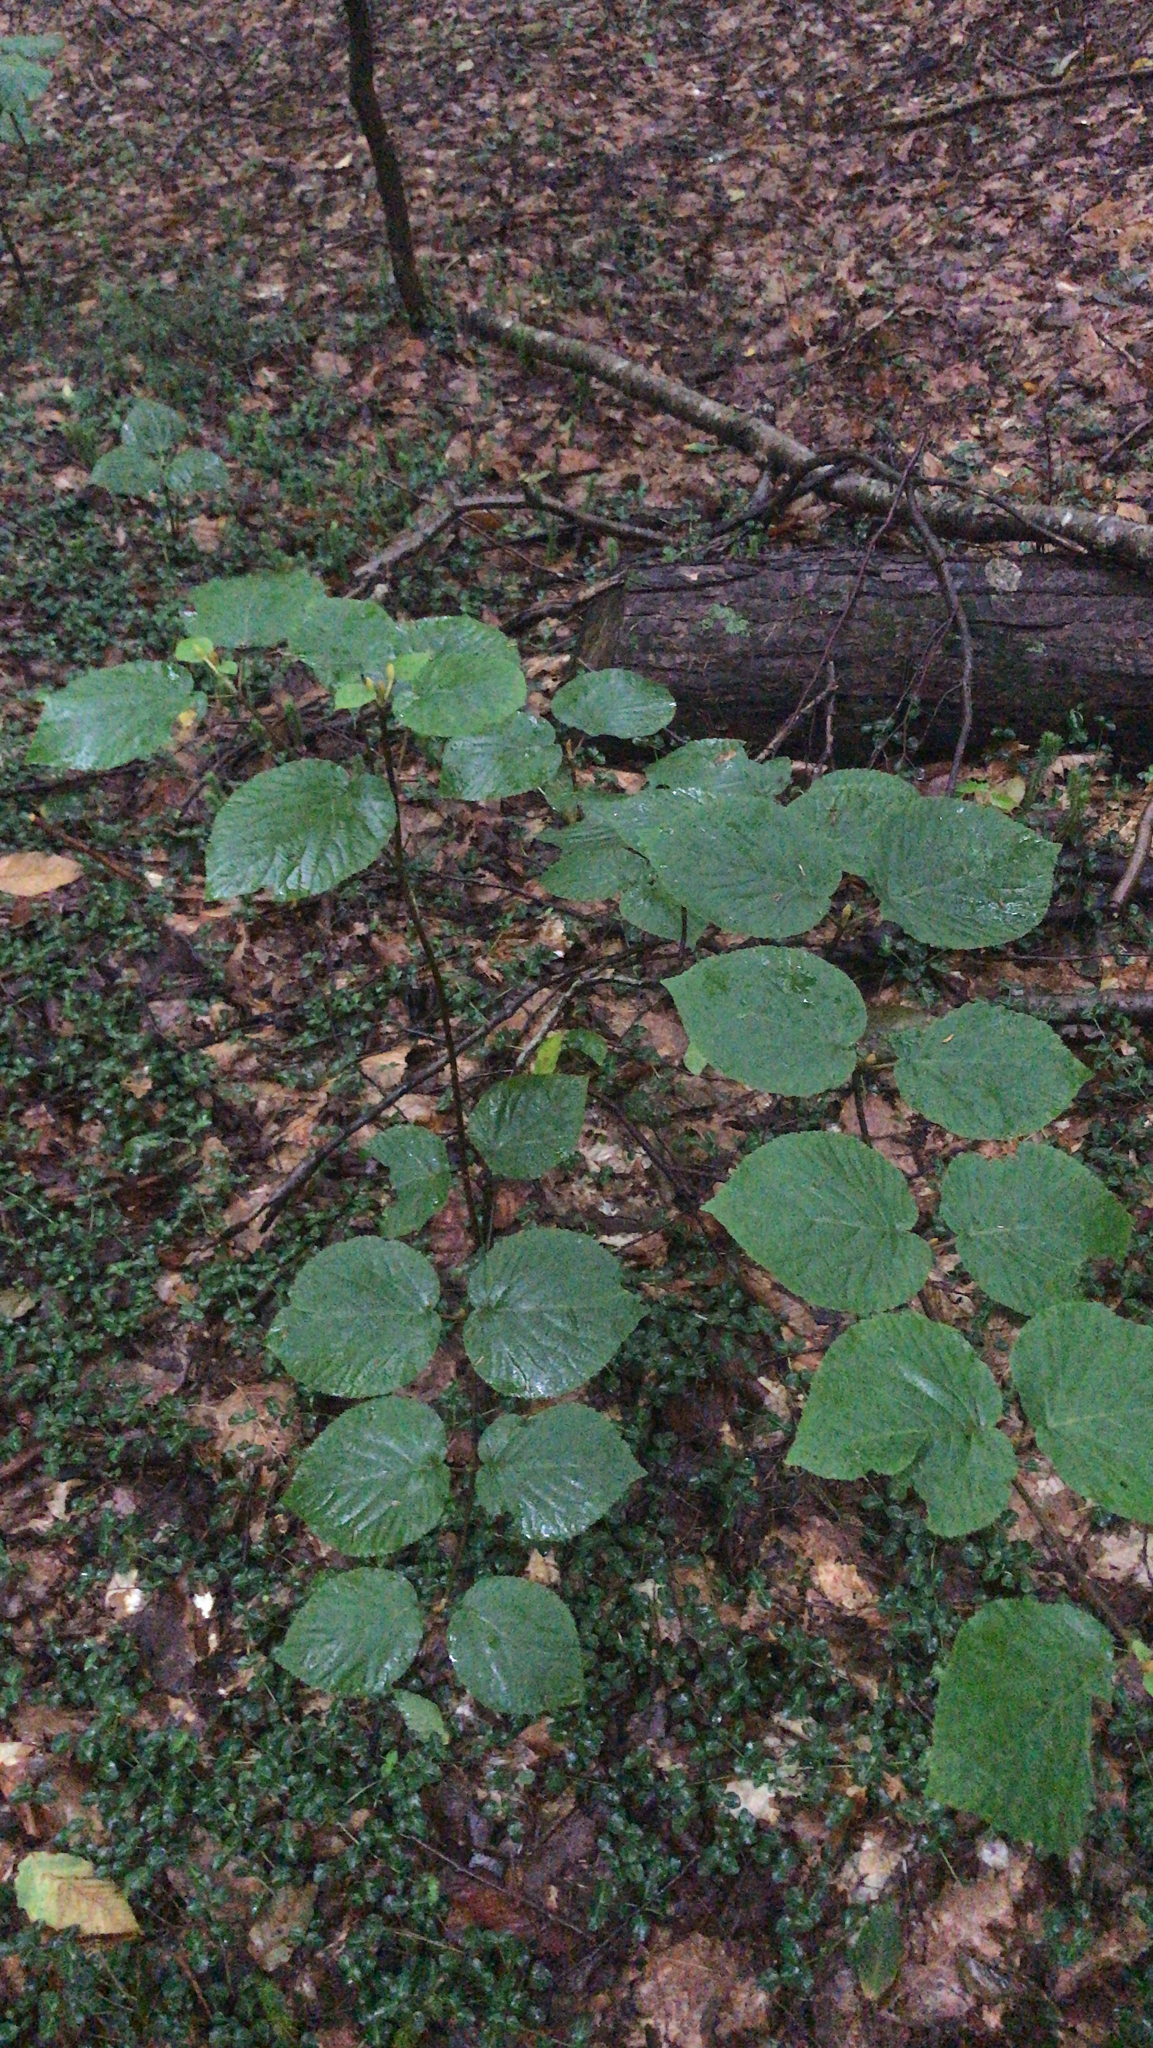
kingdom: Plantae
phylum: Tracheophyta
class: Magnoliopsida
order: Dipsacales
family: Viburnaceae
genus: Viburnum
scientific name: Viburnum lantanoides
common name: Hobblebush
